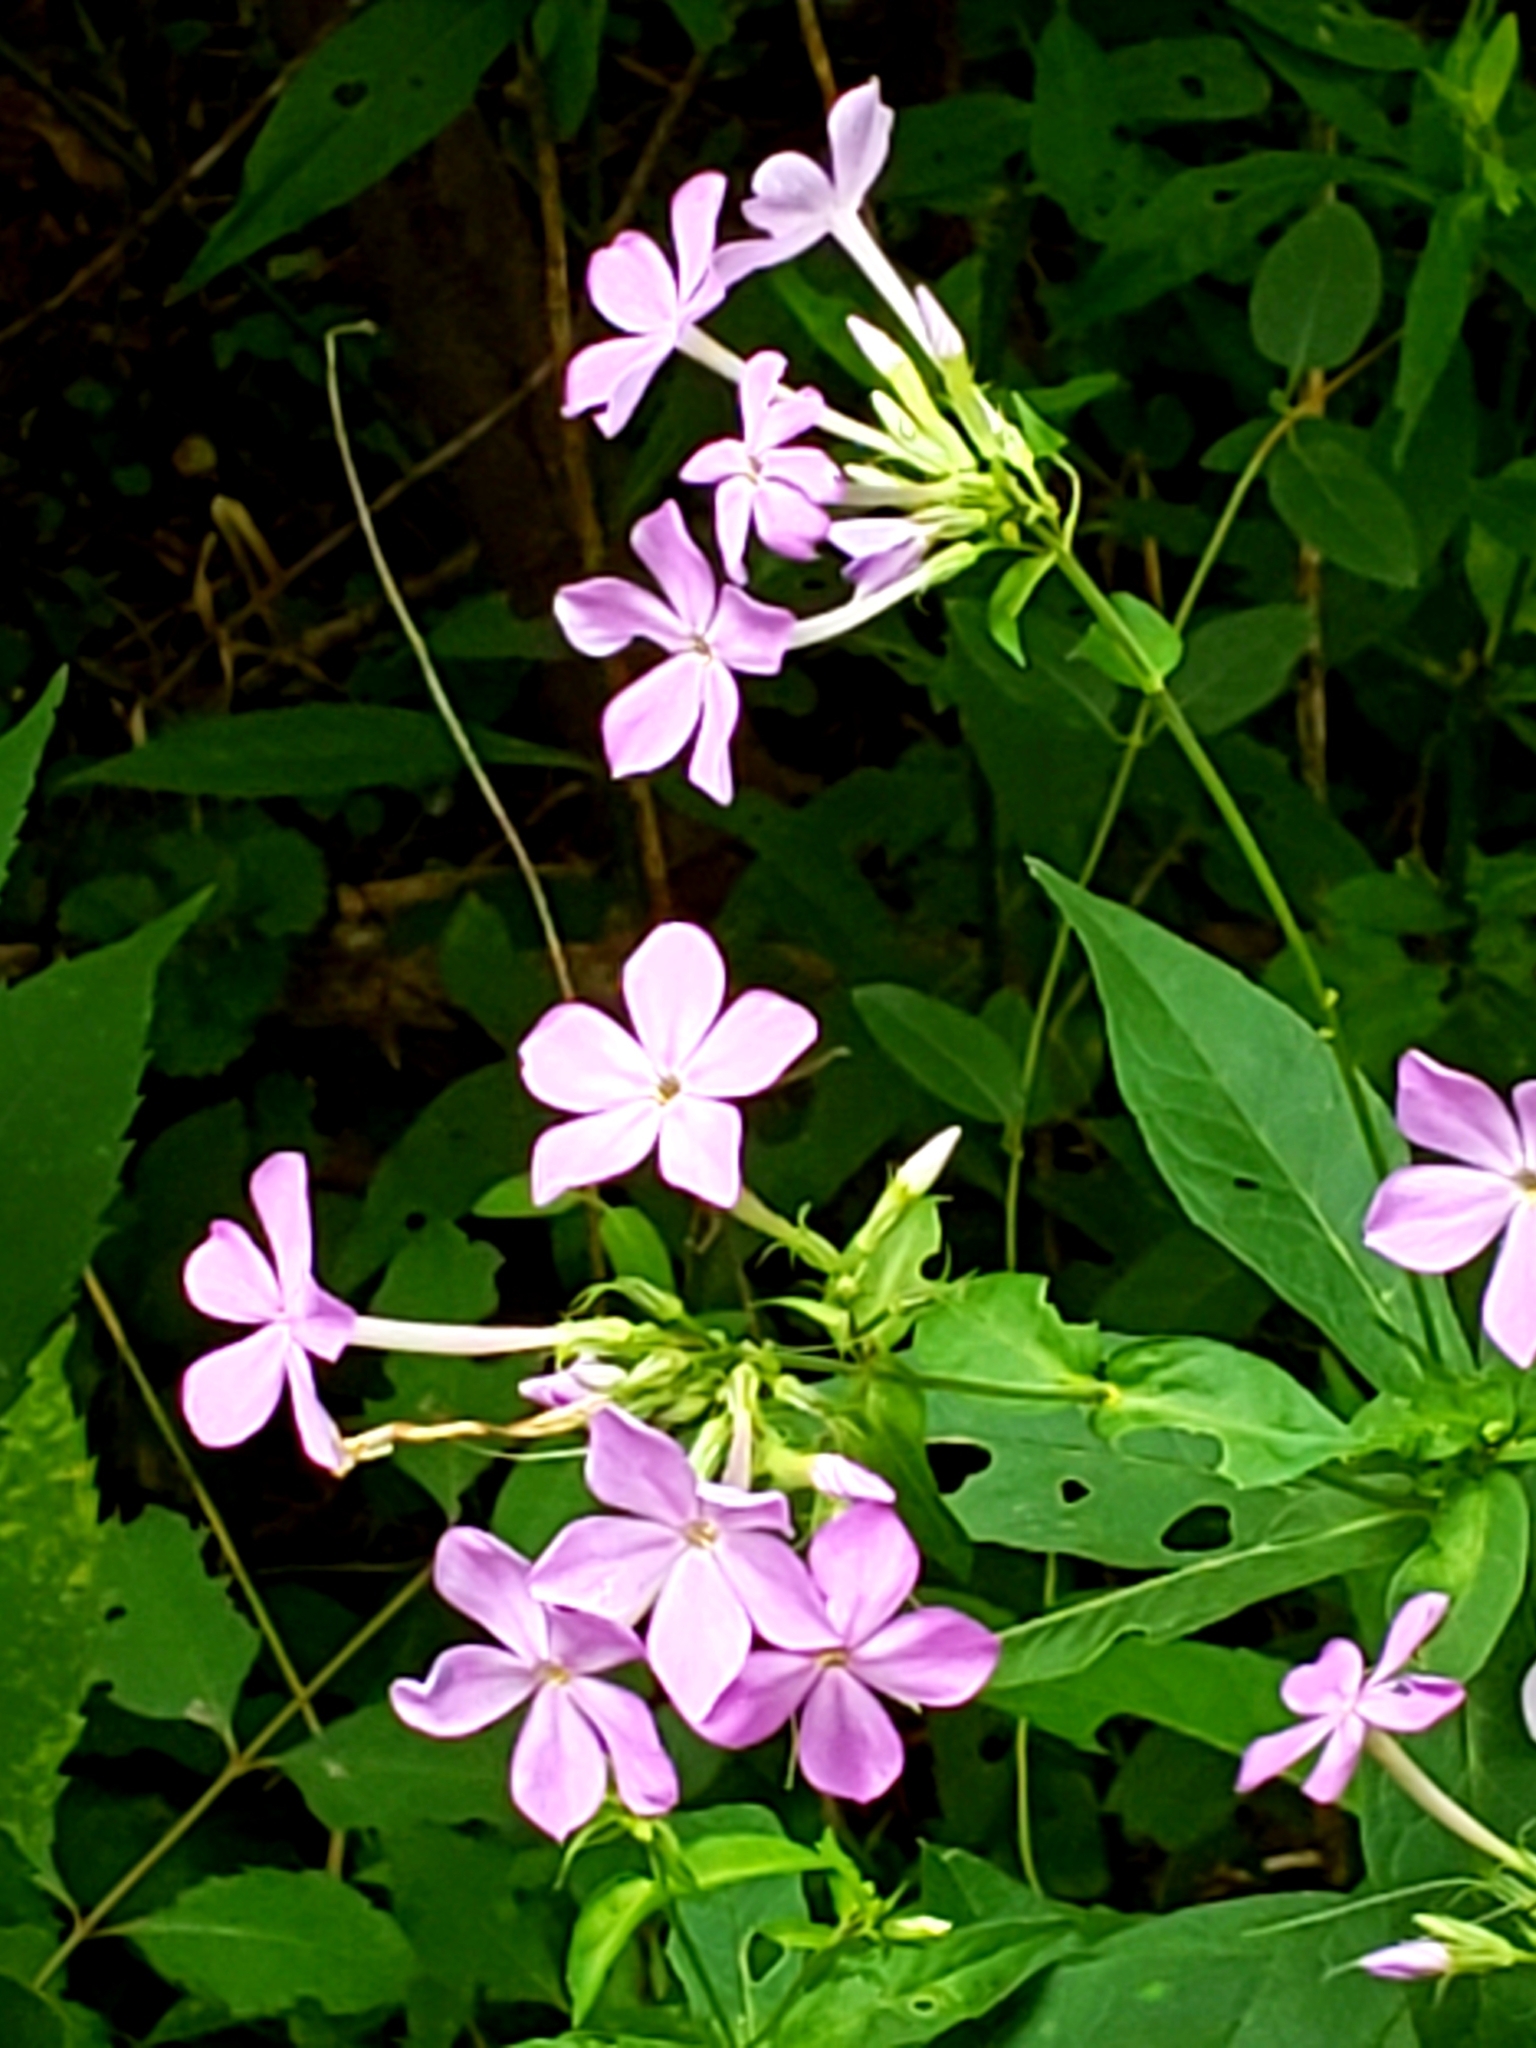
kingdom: Plantae
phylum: Tracheophyta
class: Magnoliopsida
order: Ericales
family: Polemoniaceae
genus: Phlox
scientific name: Phlox paniculata
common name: Fall phlox
